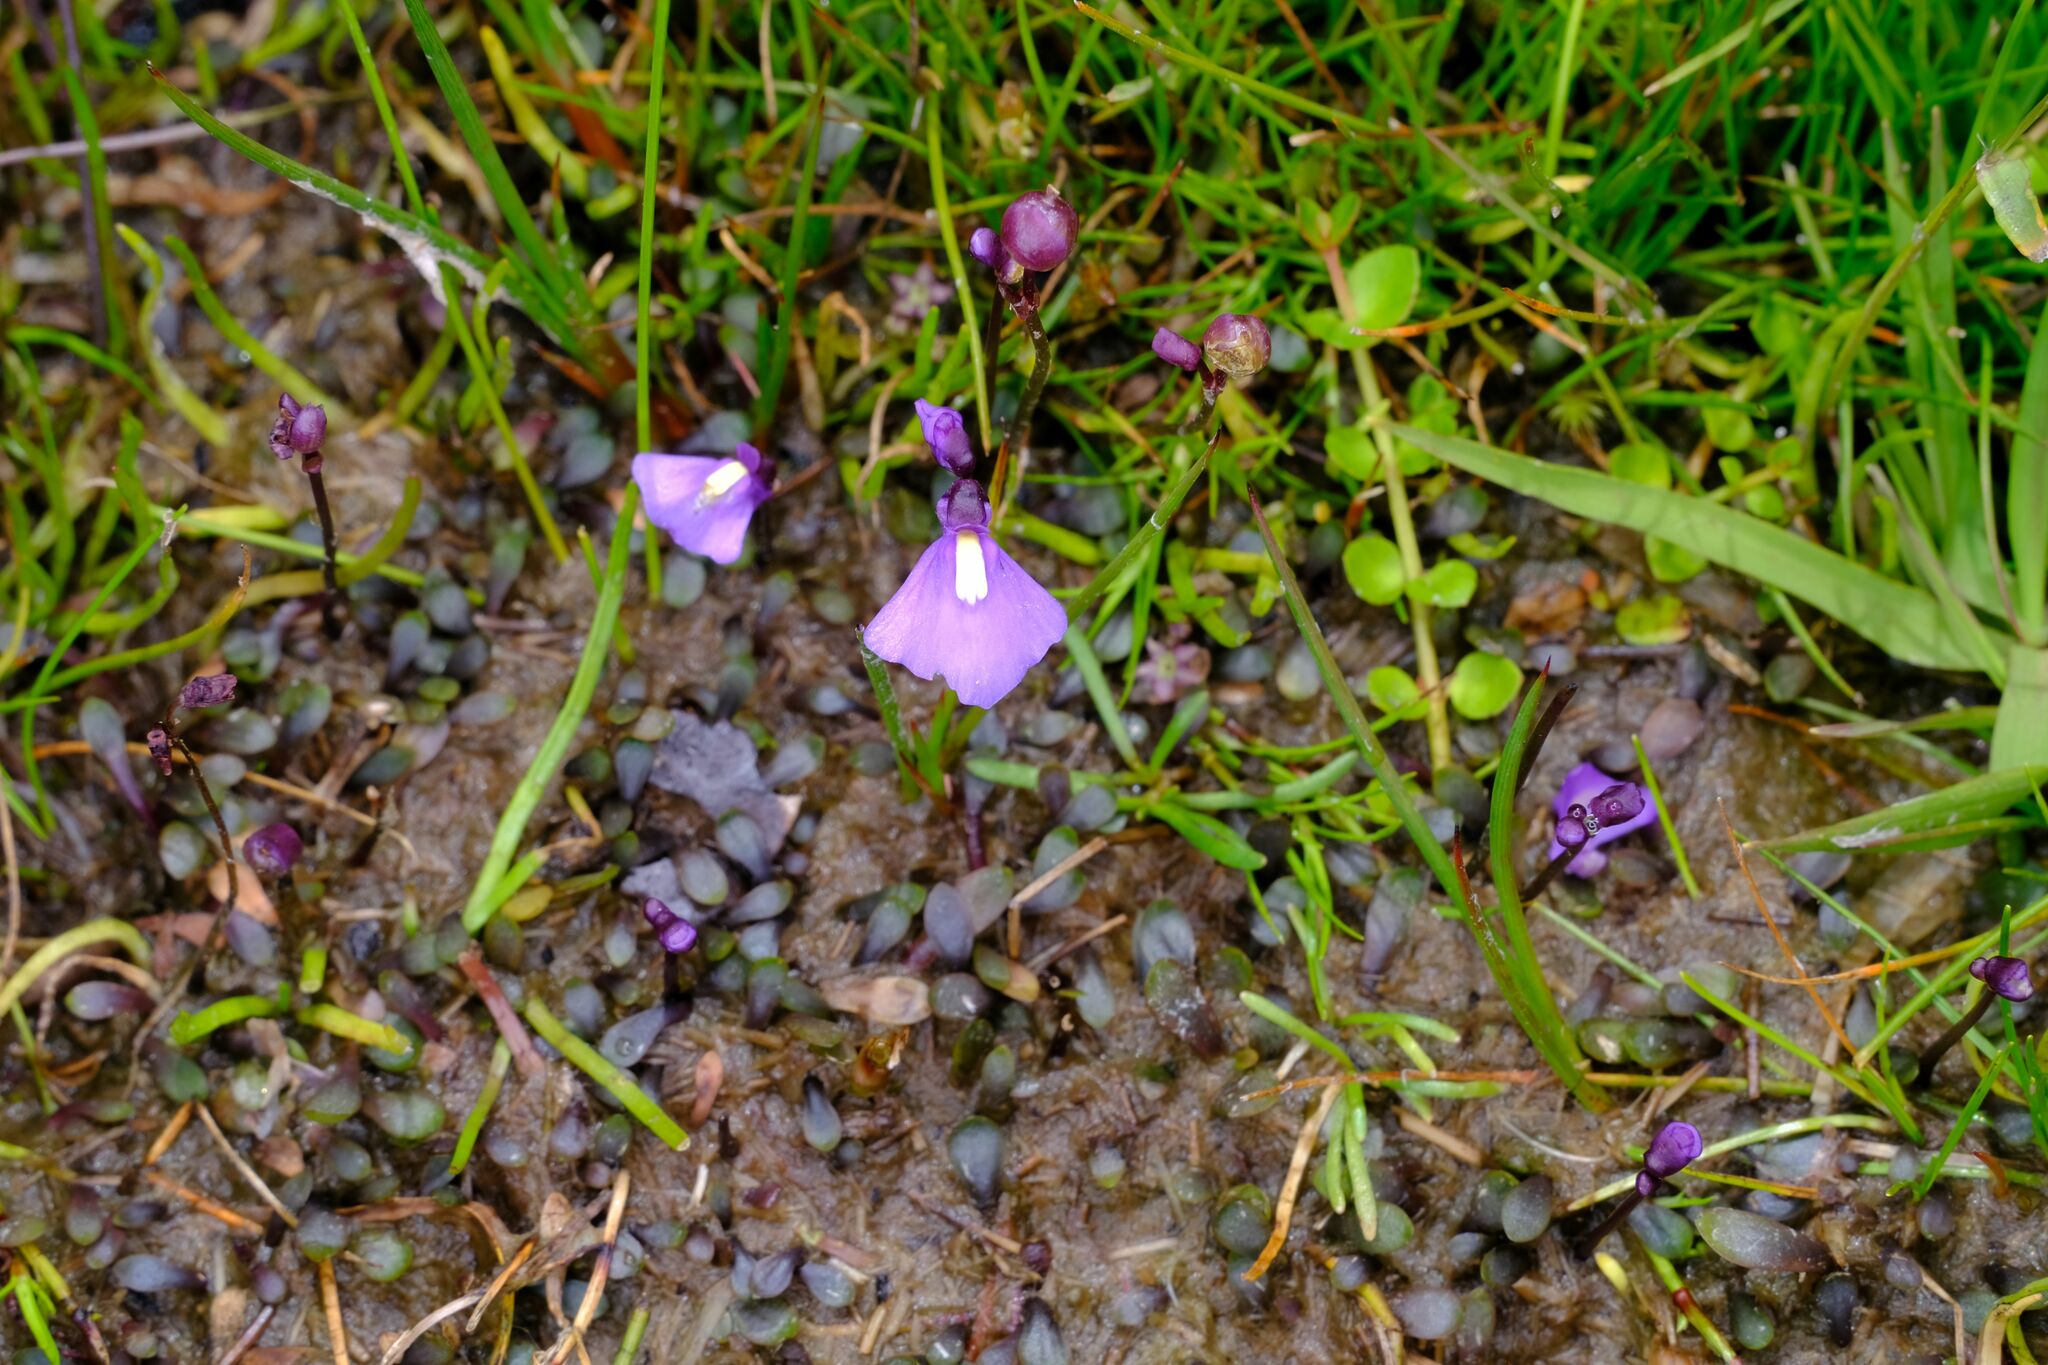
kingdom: Plantae
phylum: Tracheophyta
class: Magnoliopsida
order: Lamiales
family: Lentibulariaceae
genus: Utricularia
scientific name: Utricularia dichotoma
